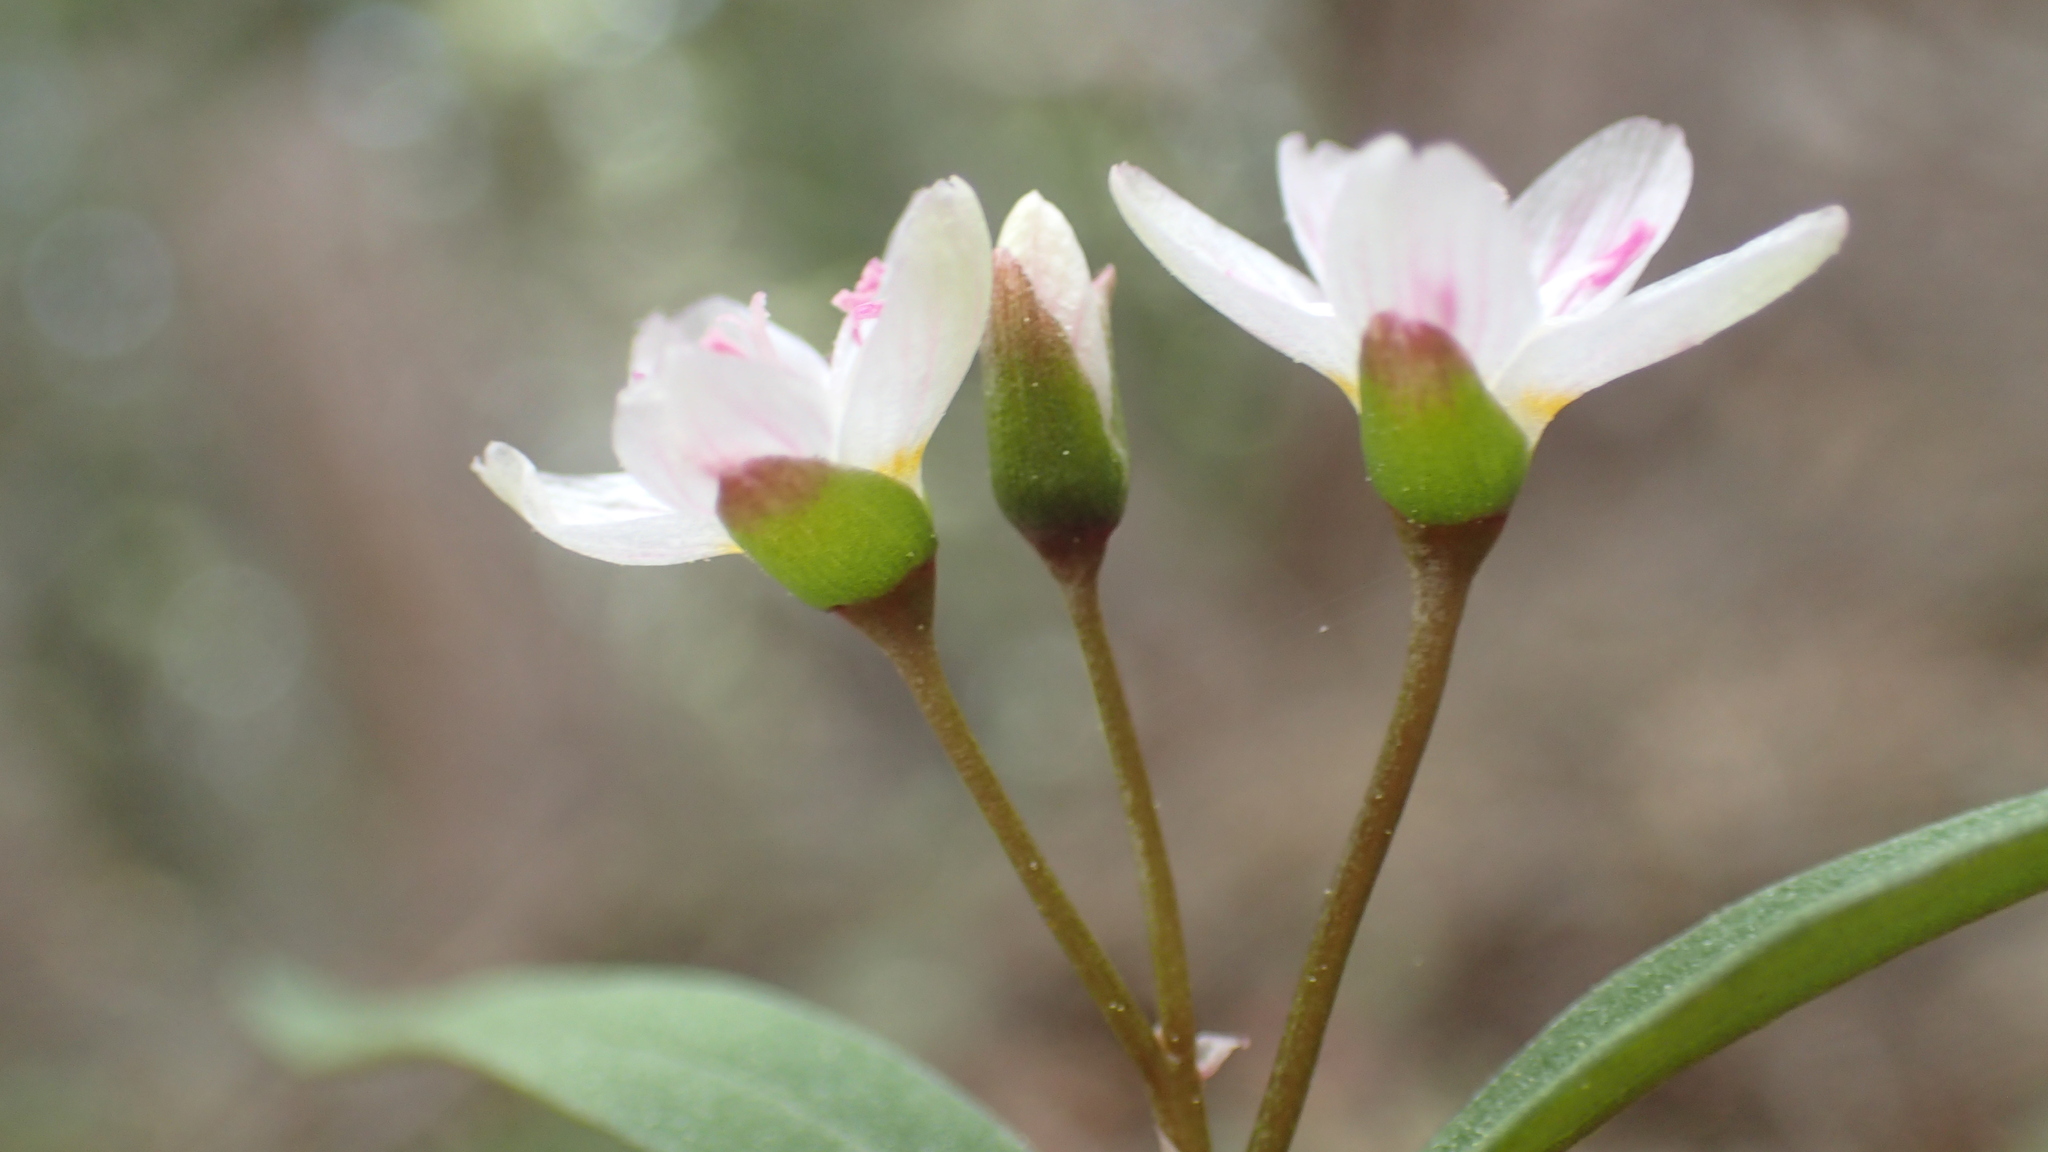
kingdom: Plantae
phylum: Tracheophyta
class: Magnoliopsida
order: Caryophyllales
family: Montiaceae
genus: Claytonia
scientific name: Claytonia lanceolata
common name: Western spring-beauty
